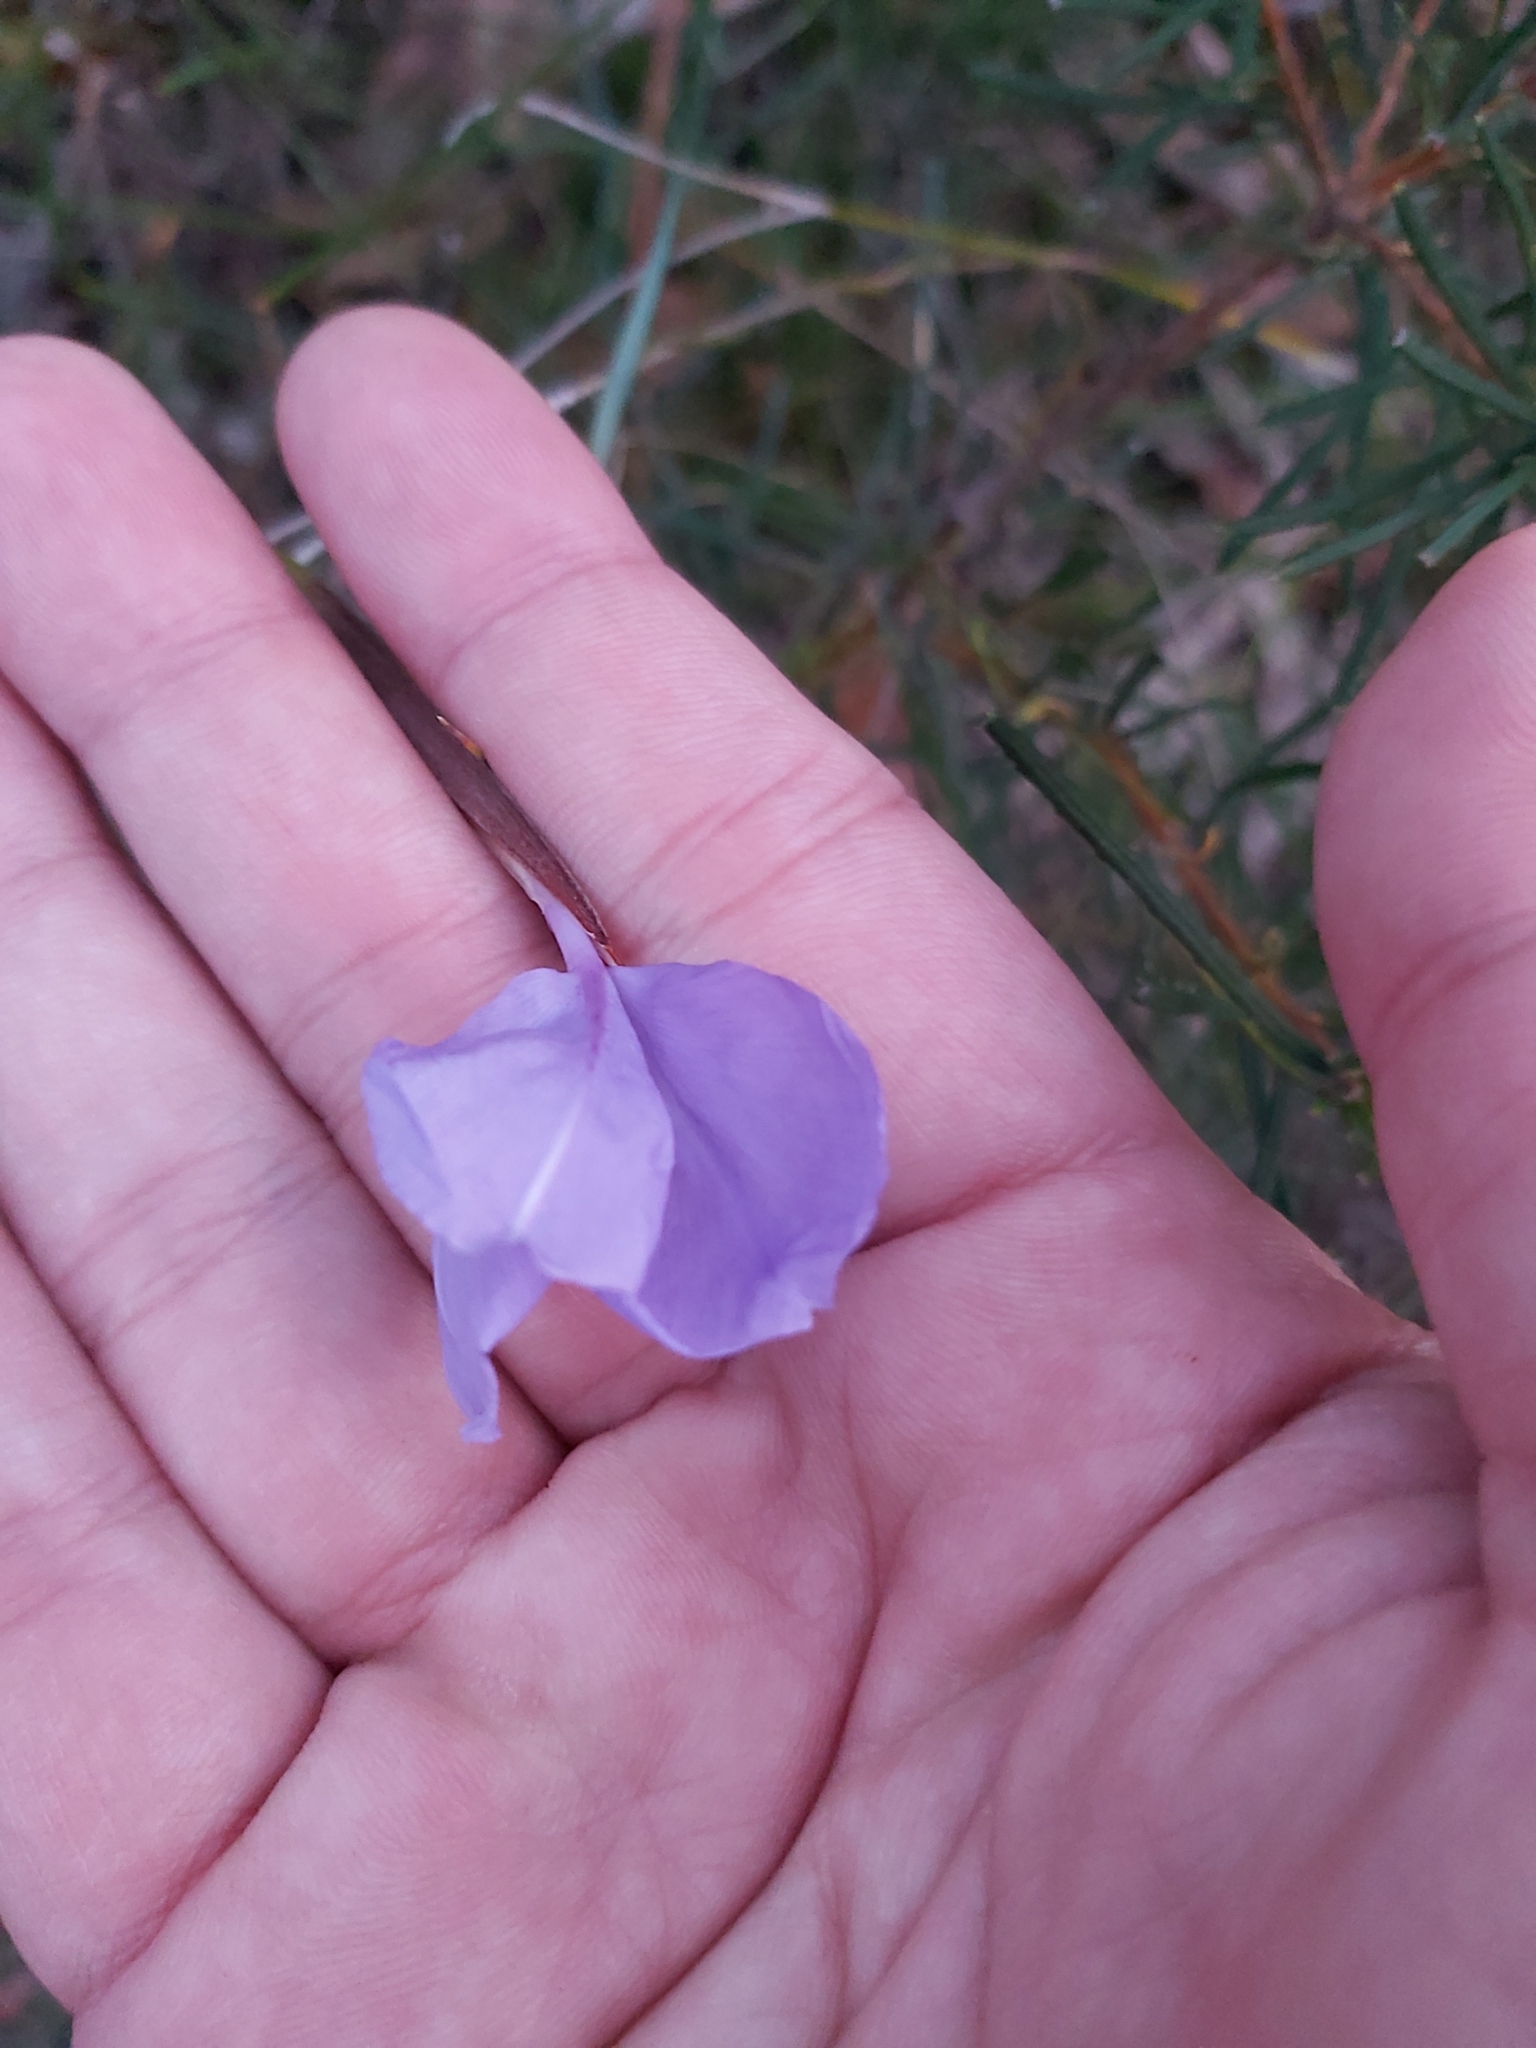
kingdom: Plantae
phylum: Tracheophyta
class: Liliopsida
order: Asparagales
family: Iridaceae
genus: Patersonia
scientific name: Patersonia glabrata
